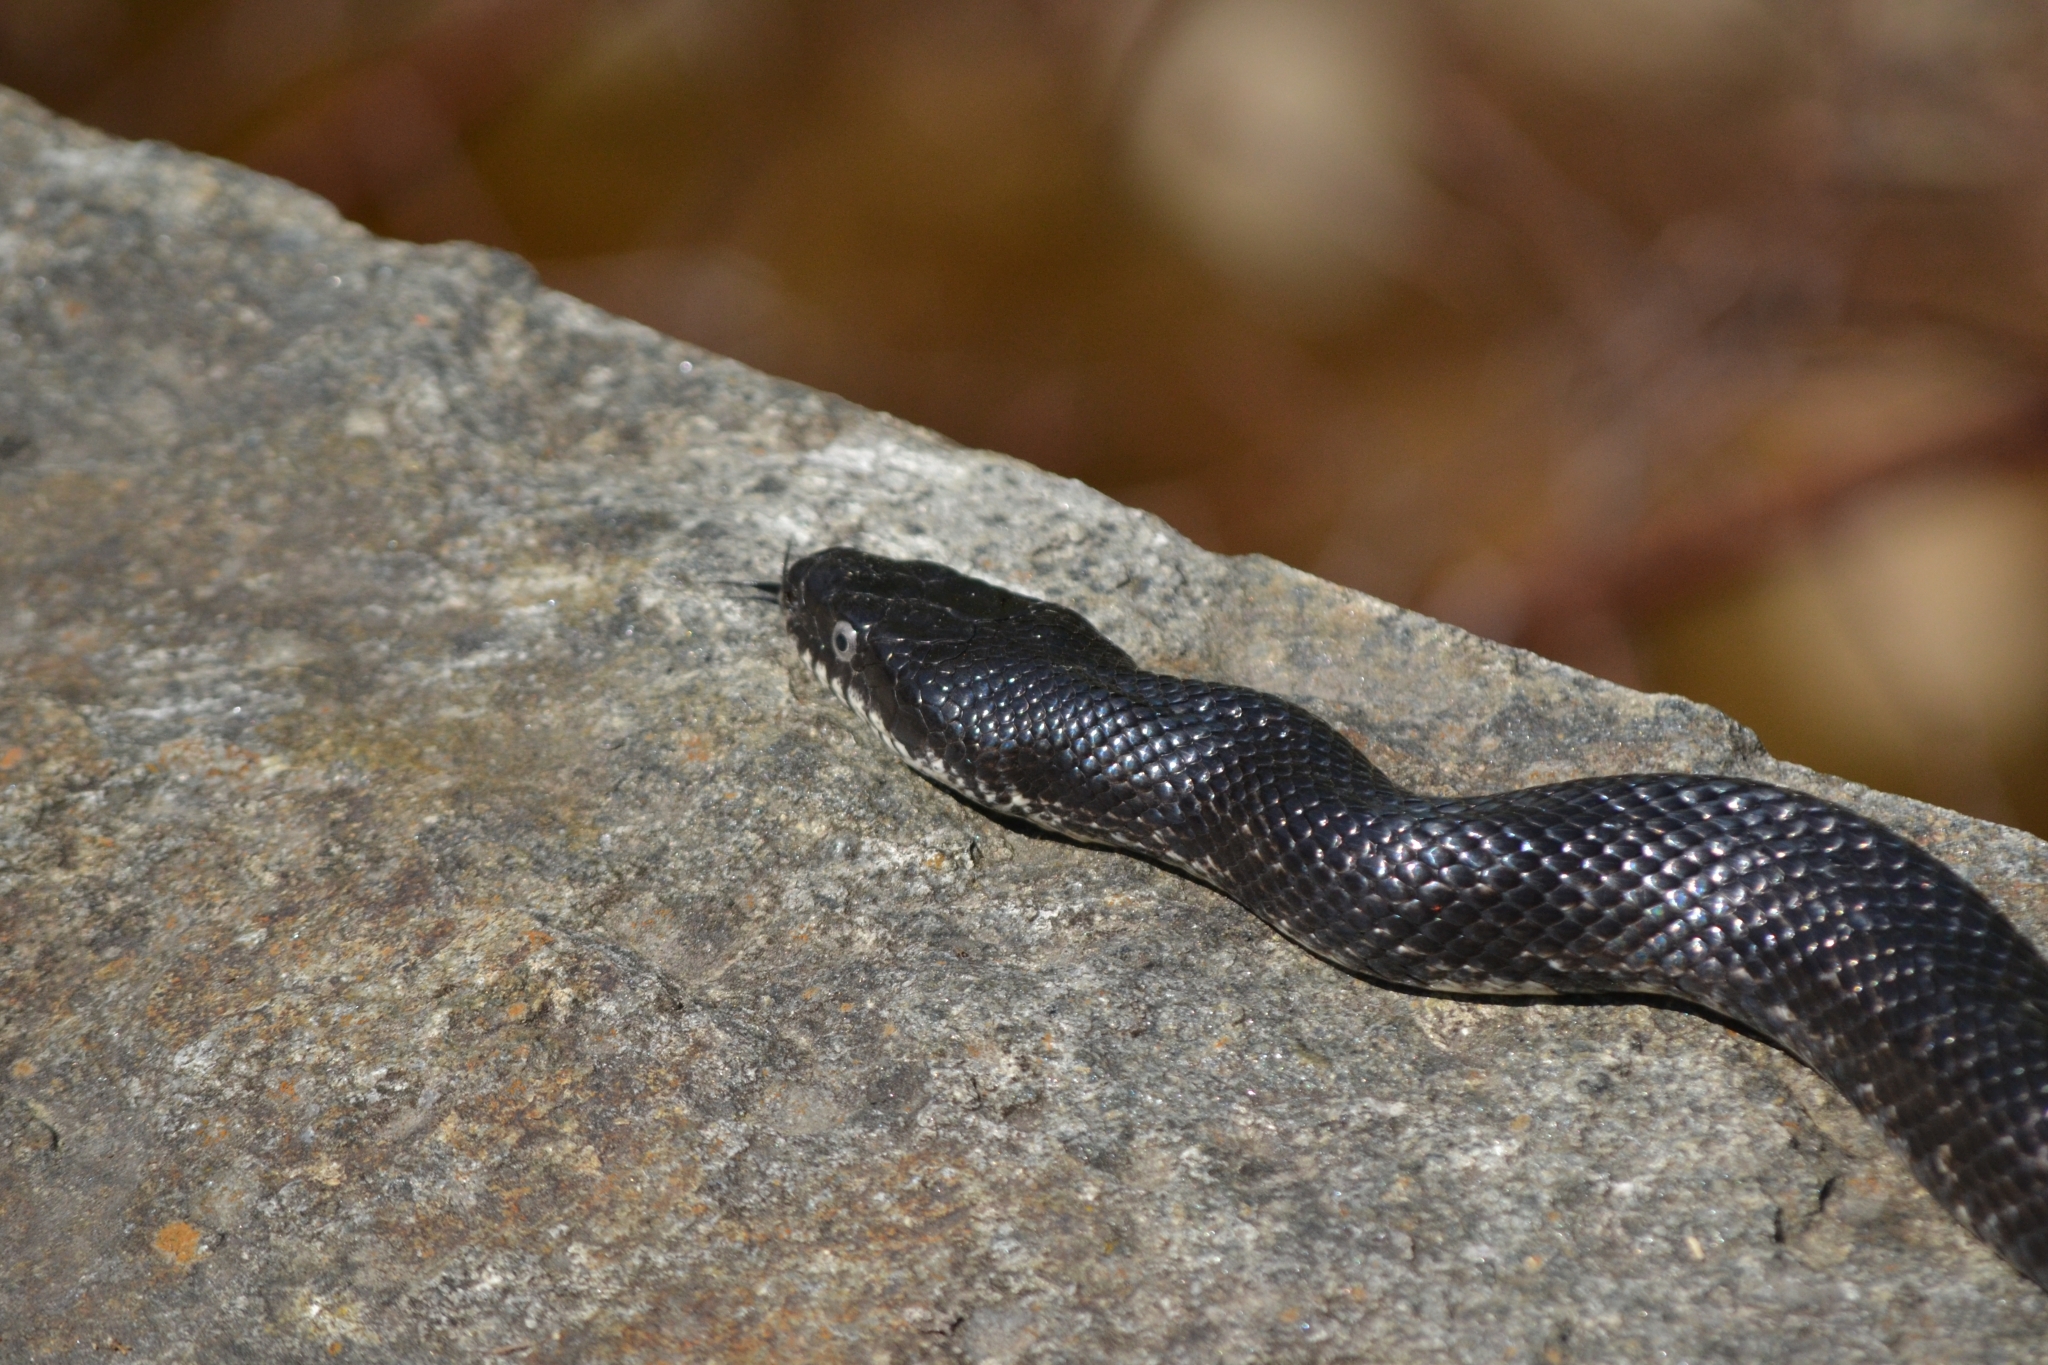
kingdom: Animalia
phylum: Chordata
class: Squamata
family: Colubridae
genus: Pantherophis
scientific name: Pantherophis alleghaniensis
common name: Eastern rat snake
